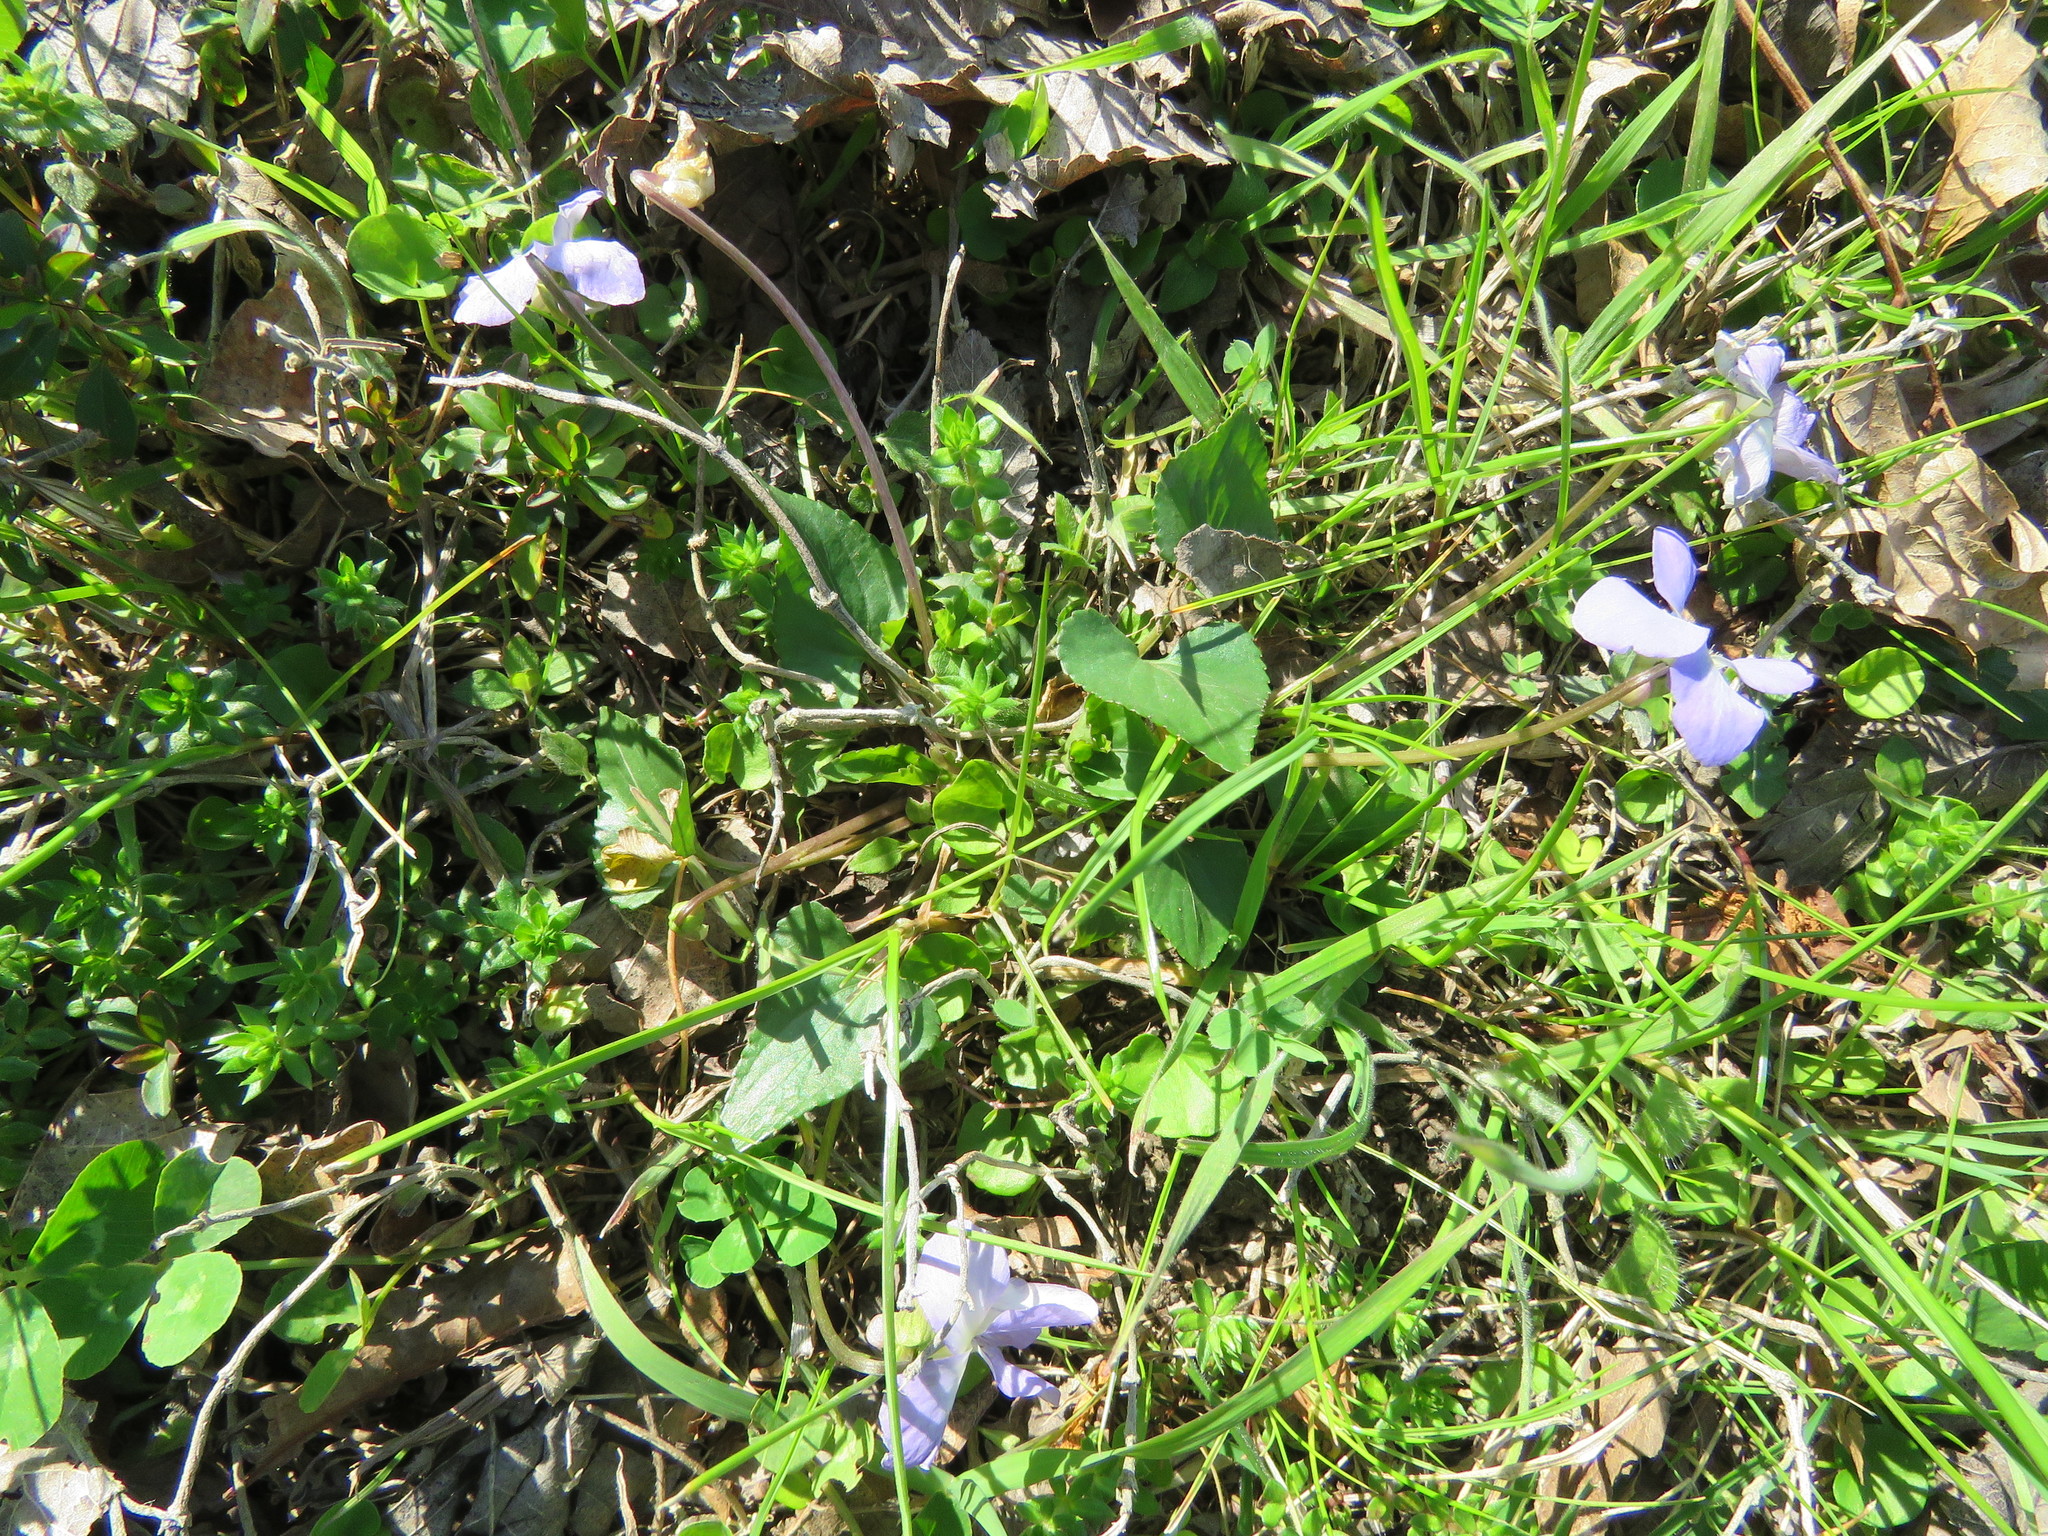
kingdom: Plantae
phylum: Tracheophyta
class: Magnoliopsida
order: Malpighiales
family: Violaceae
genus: Viola
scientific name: Viola sororia
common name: Dooryard violet
